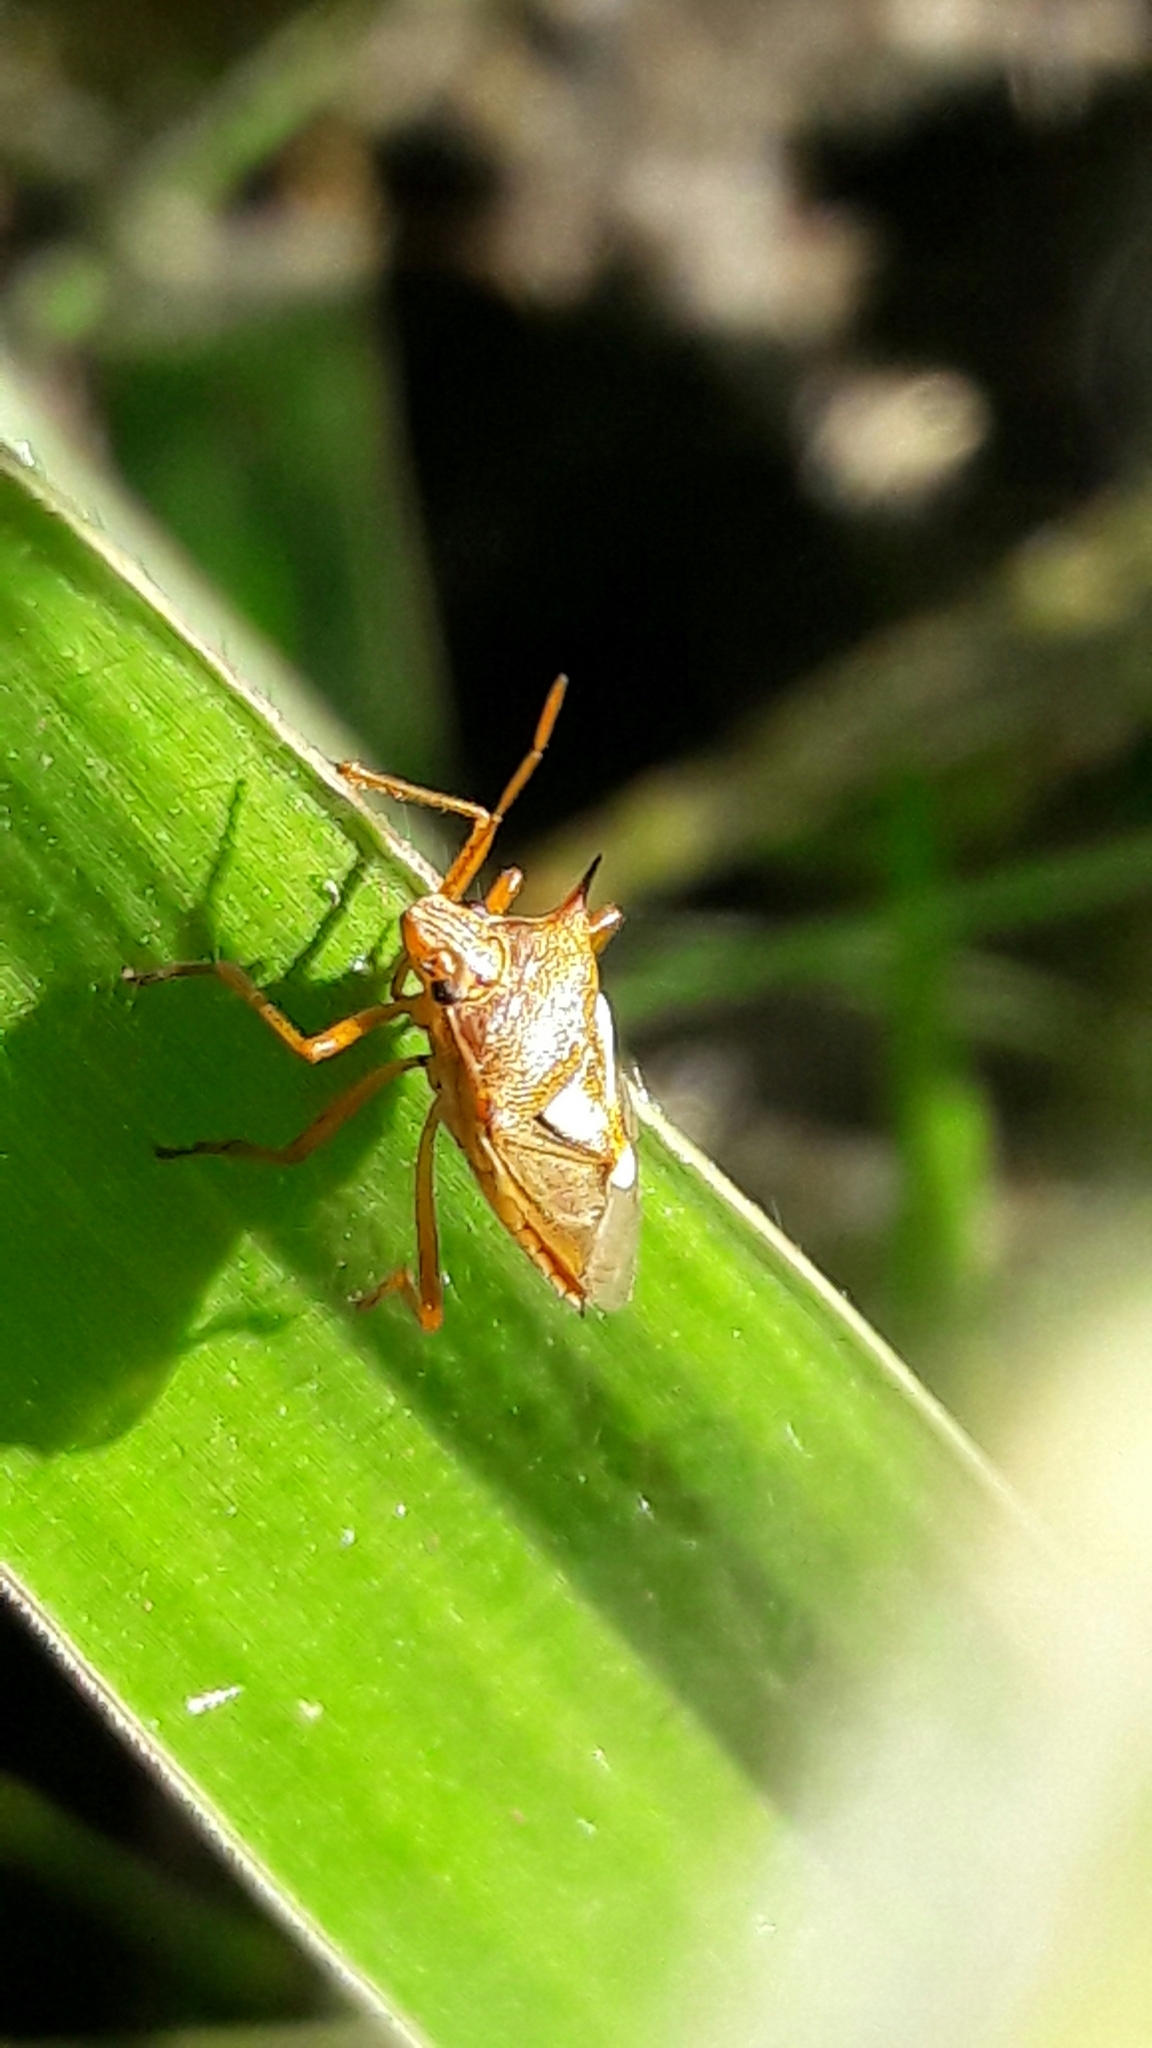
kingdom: Animalia
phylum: Arthropoda
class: Insecta
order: Hemiptera
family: Pentatomidae
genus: Oebalus
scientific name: Oebalus ypsilongriseus
